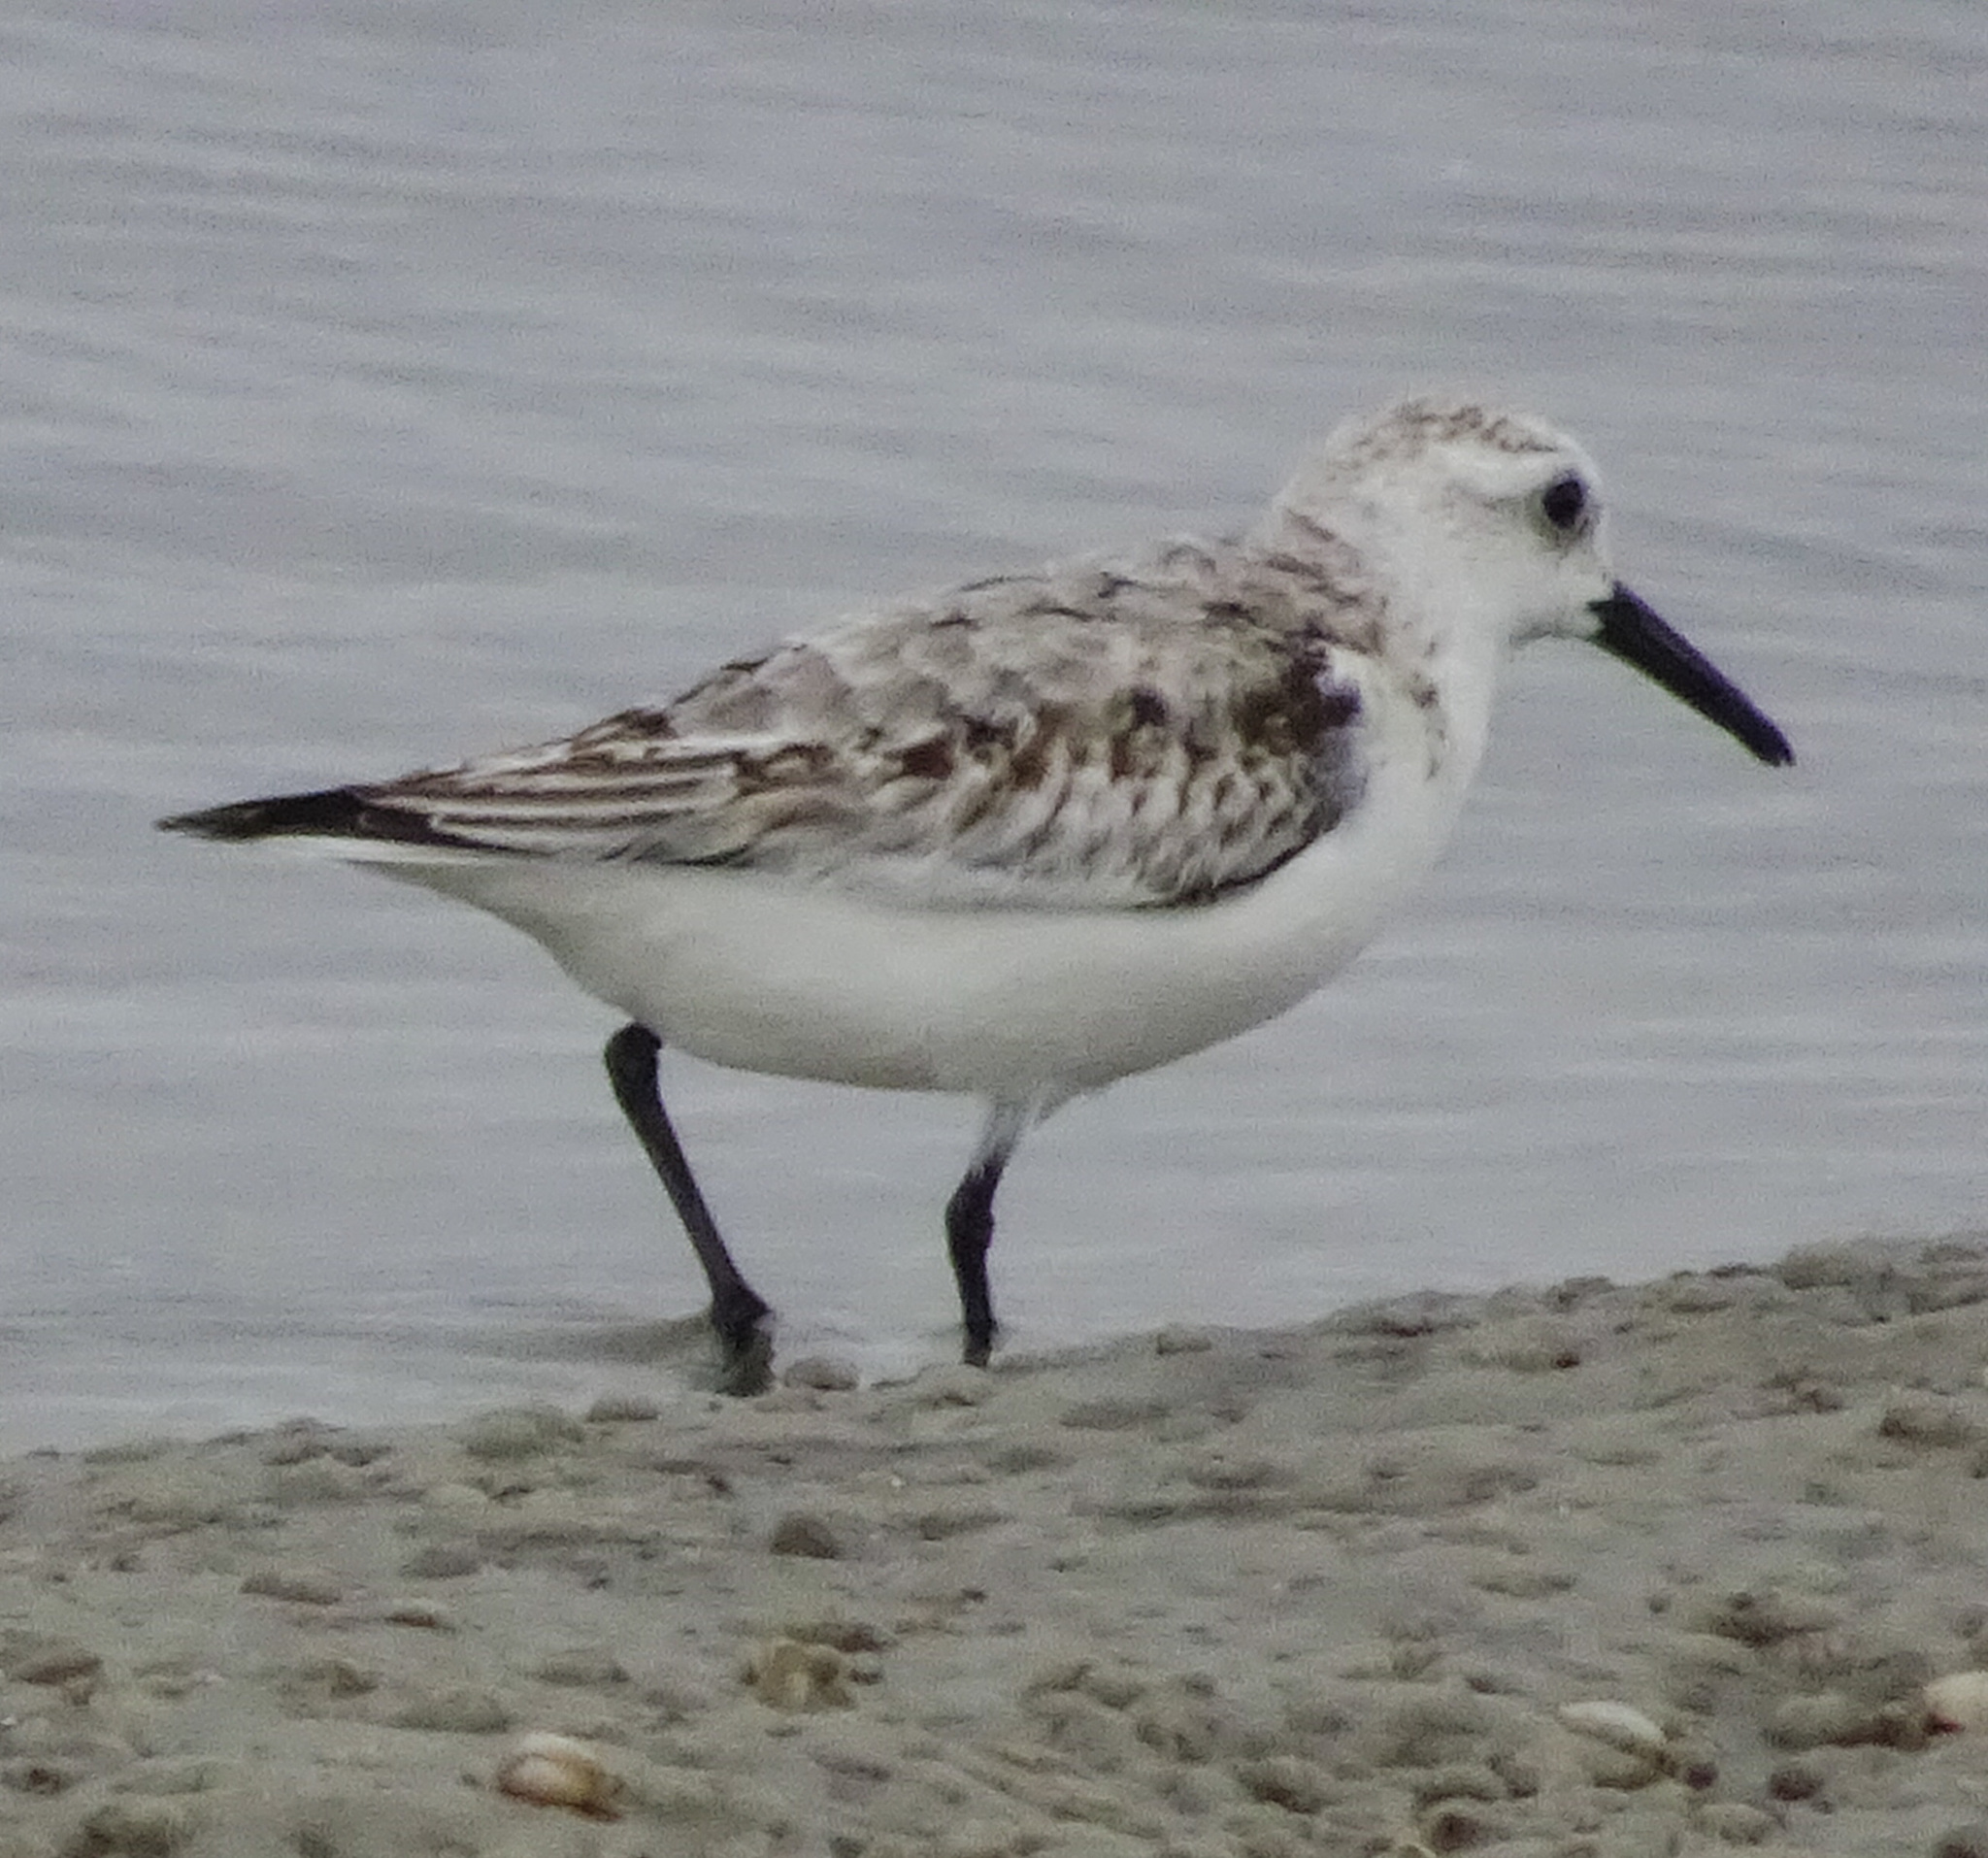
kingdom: Animalia
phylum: Chordata
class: Aves
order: Charadriiformes
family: Scolopacidae
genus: Calidris
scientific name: Calidris alba
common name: Sanderling
